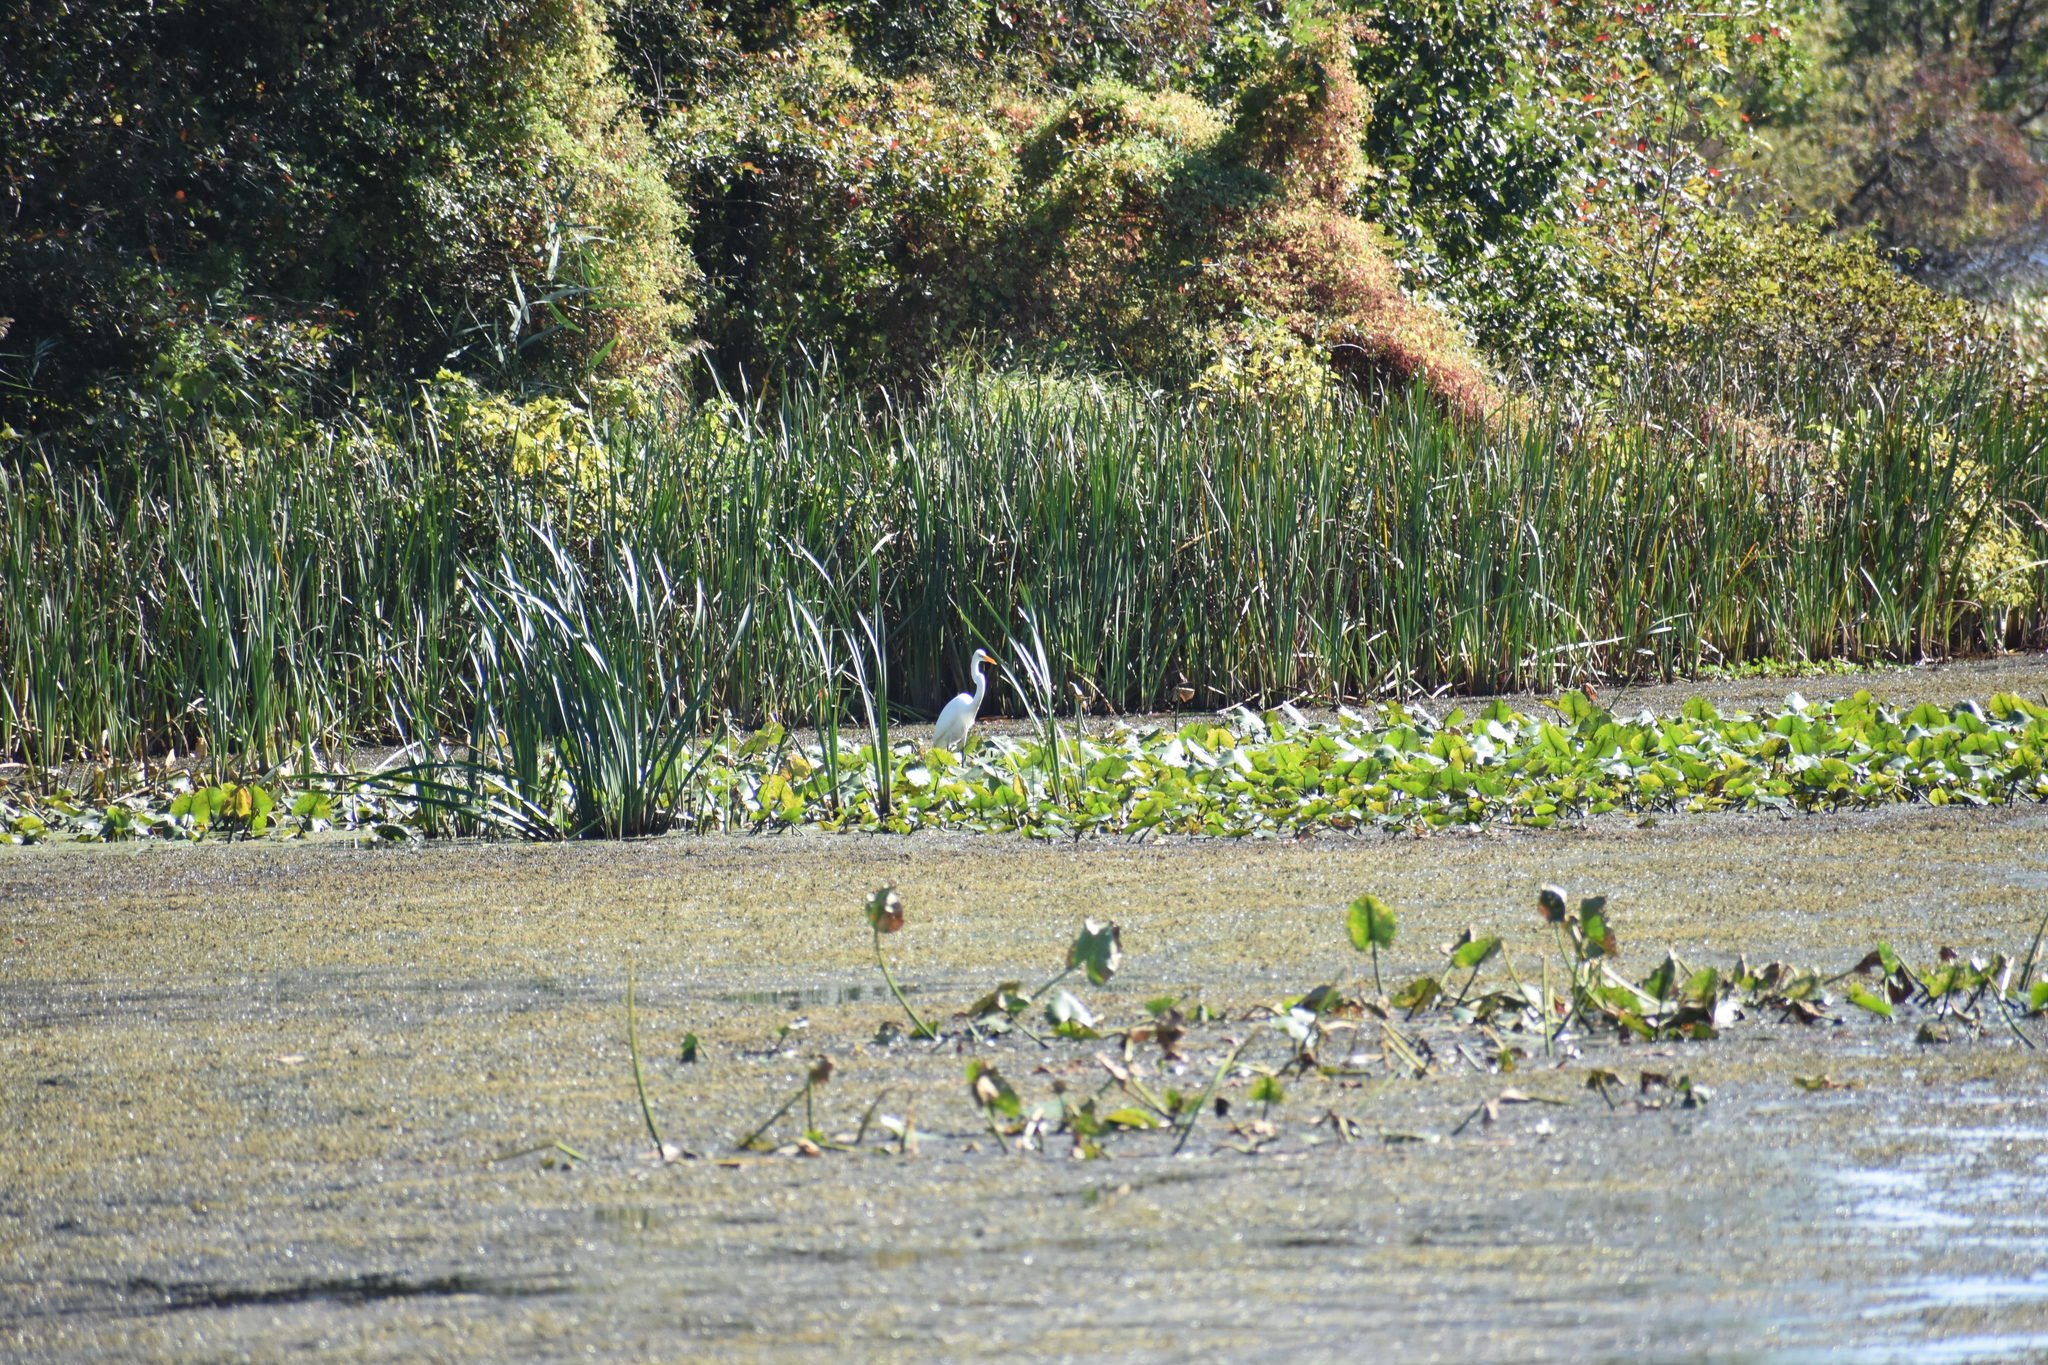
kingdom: Animalia
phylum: Chordata
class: Aves
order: Pelecaniformes
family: Ardeidae
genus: Ardea
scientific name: Ardea alba
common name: Great egret
